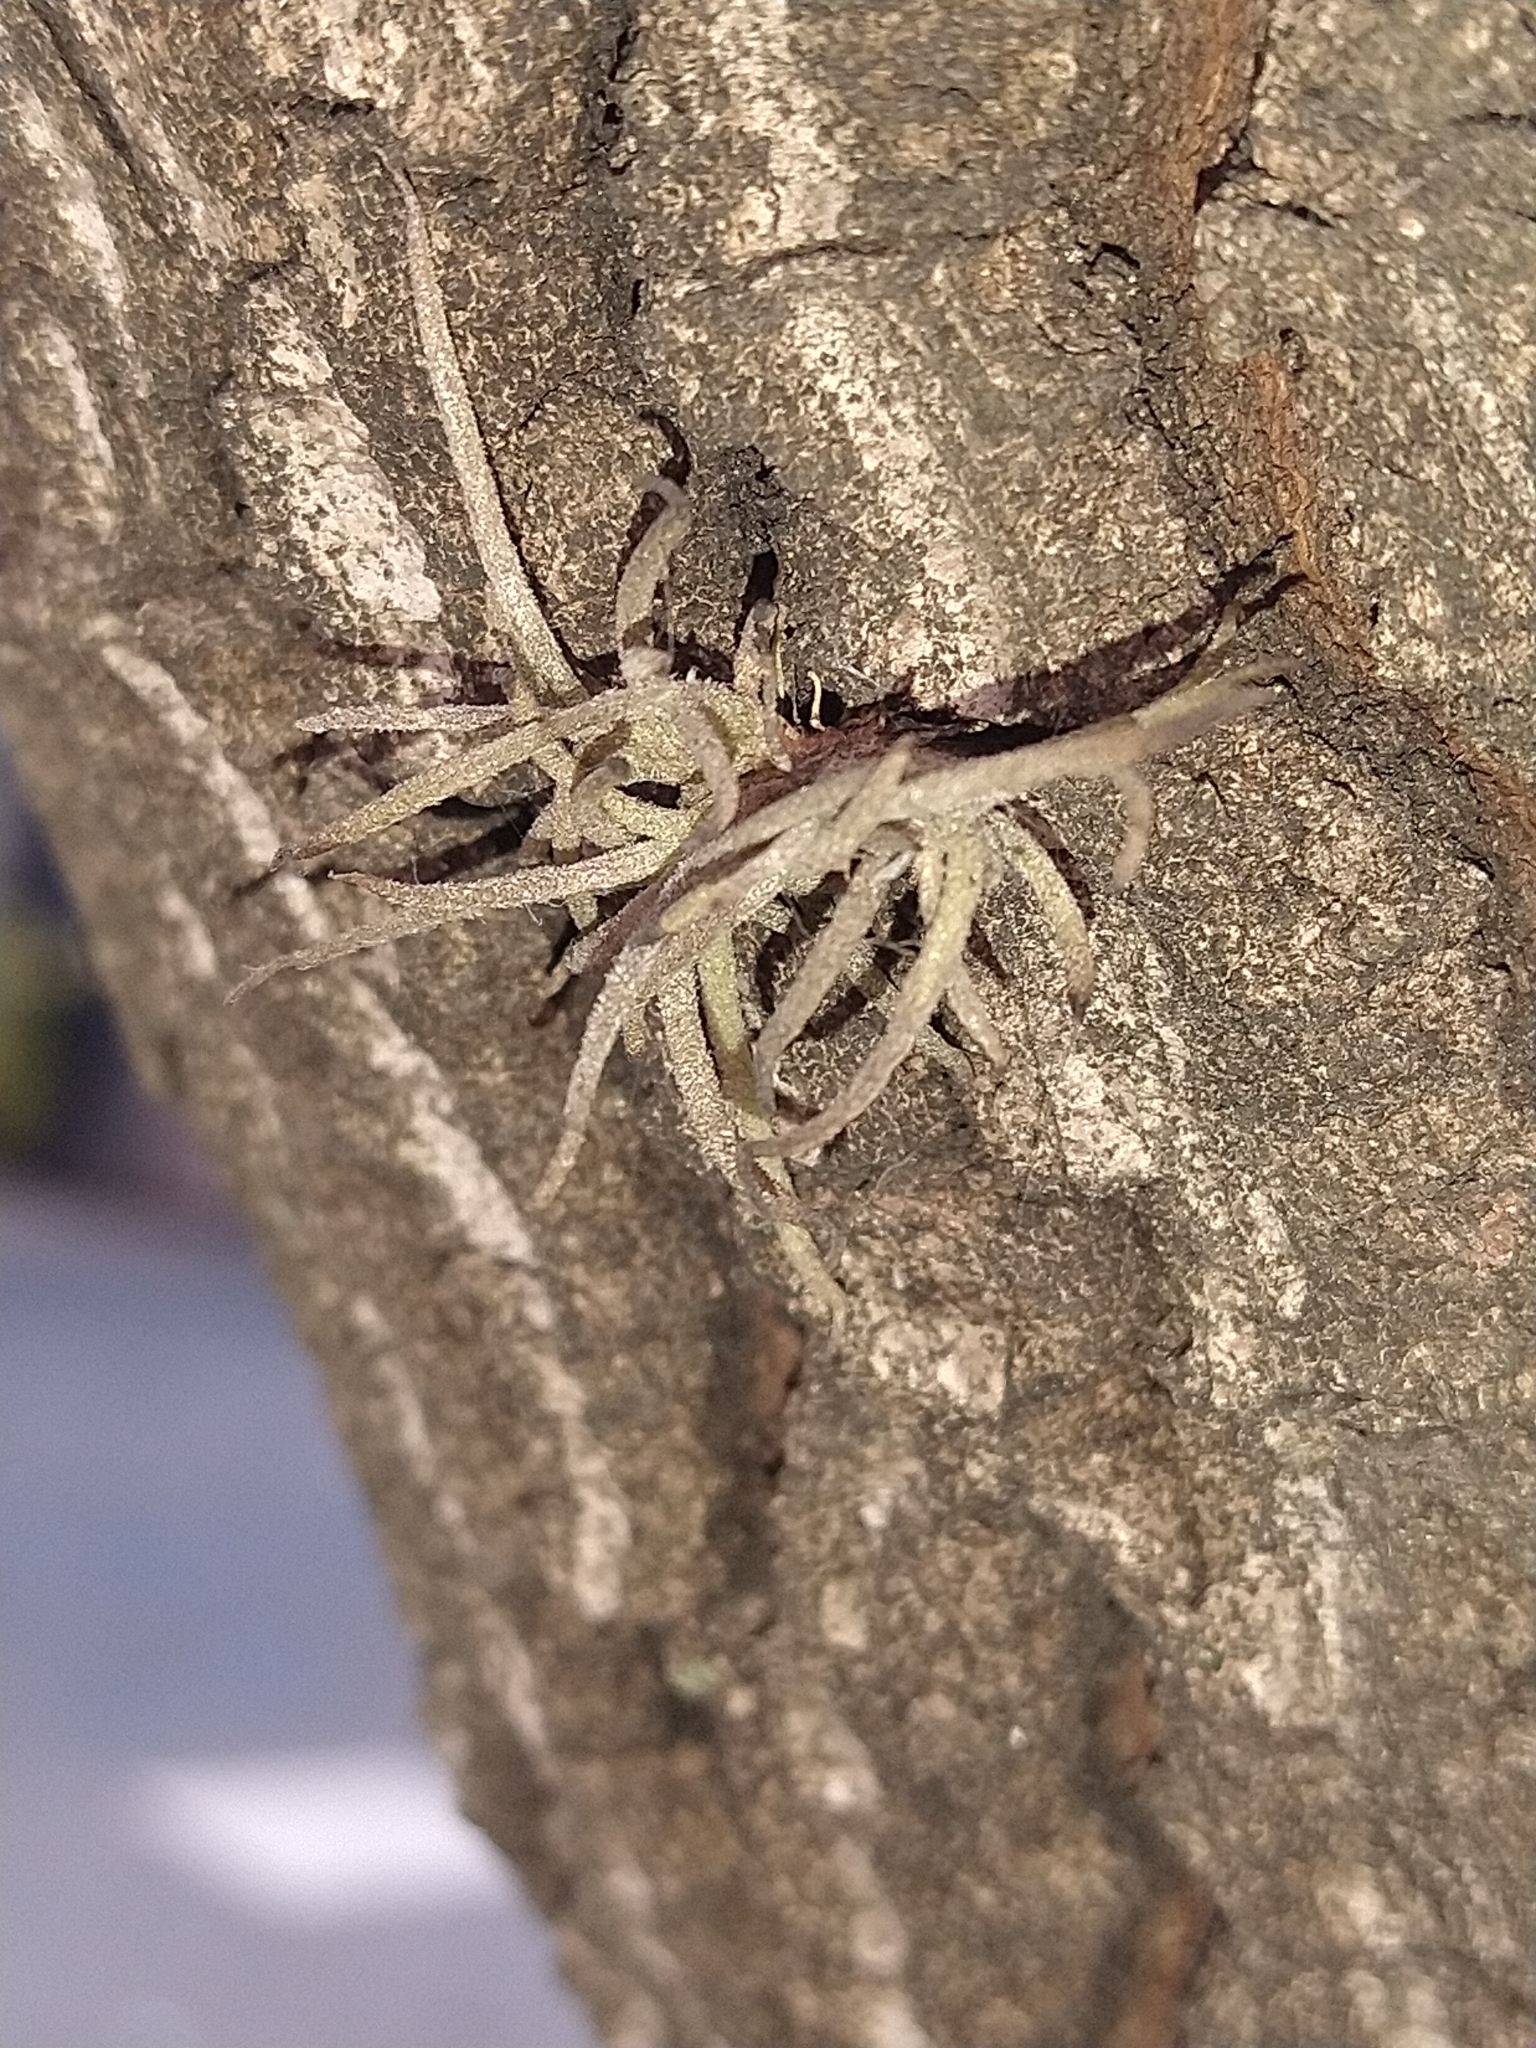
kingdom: Plantae
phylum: Tracheophyta
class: Liliopsida
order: Poales
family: Bromeliaceae
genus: Tillandsia
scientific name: Tillandsia recurvata
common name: Small ballmoss
